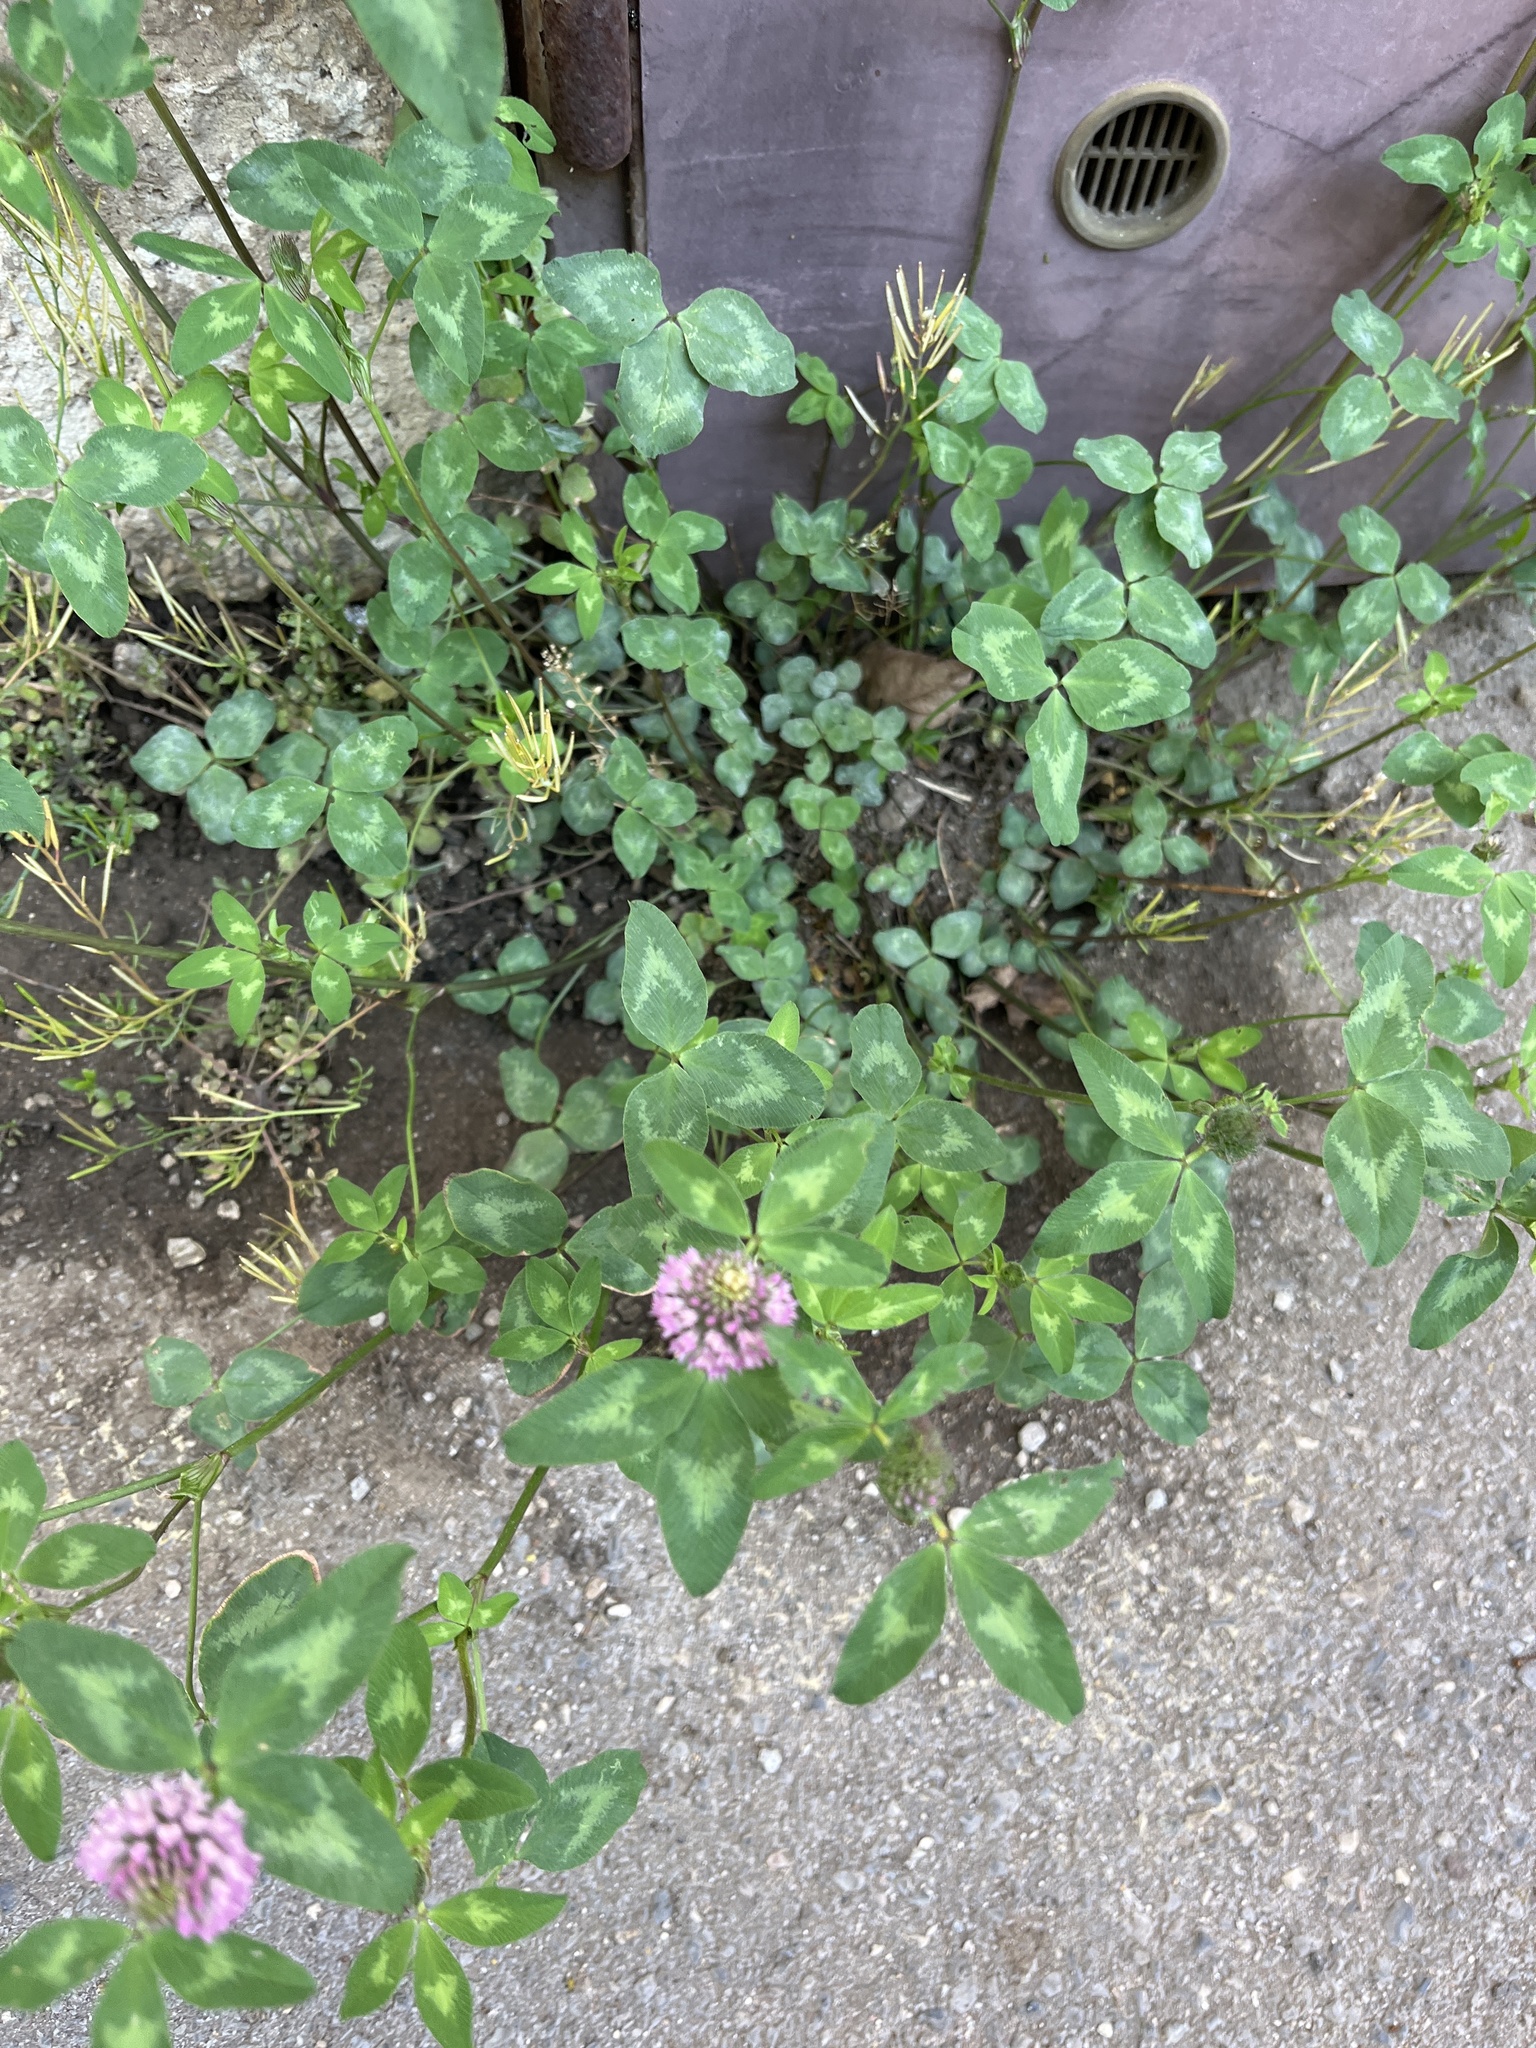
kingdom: Plantae
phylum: Tracheophyta
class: Magnoliopsida
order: Fabales
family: Fabaceae
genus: Trifolium
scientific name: Trifolium pratense
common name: Red clover
